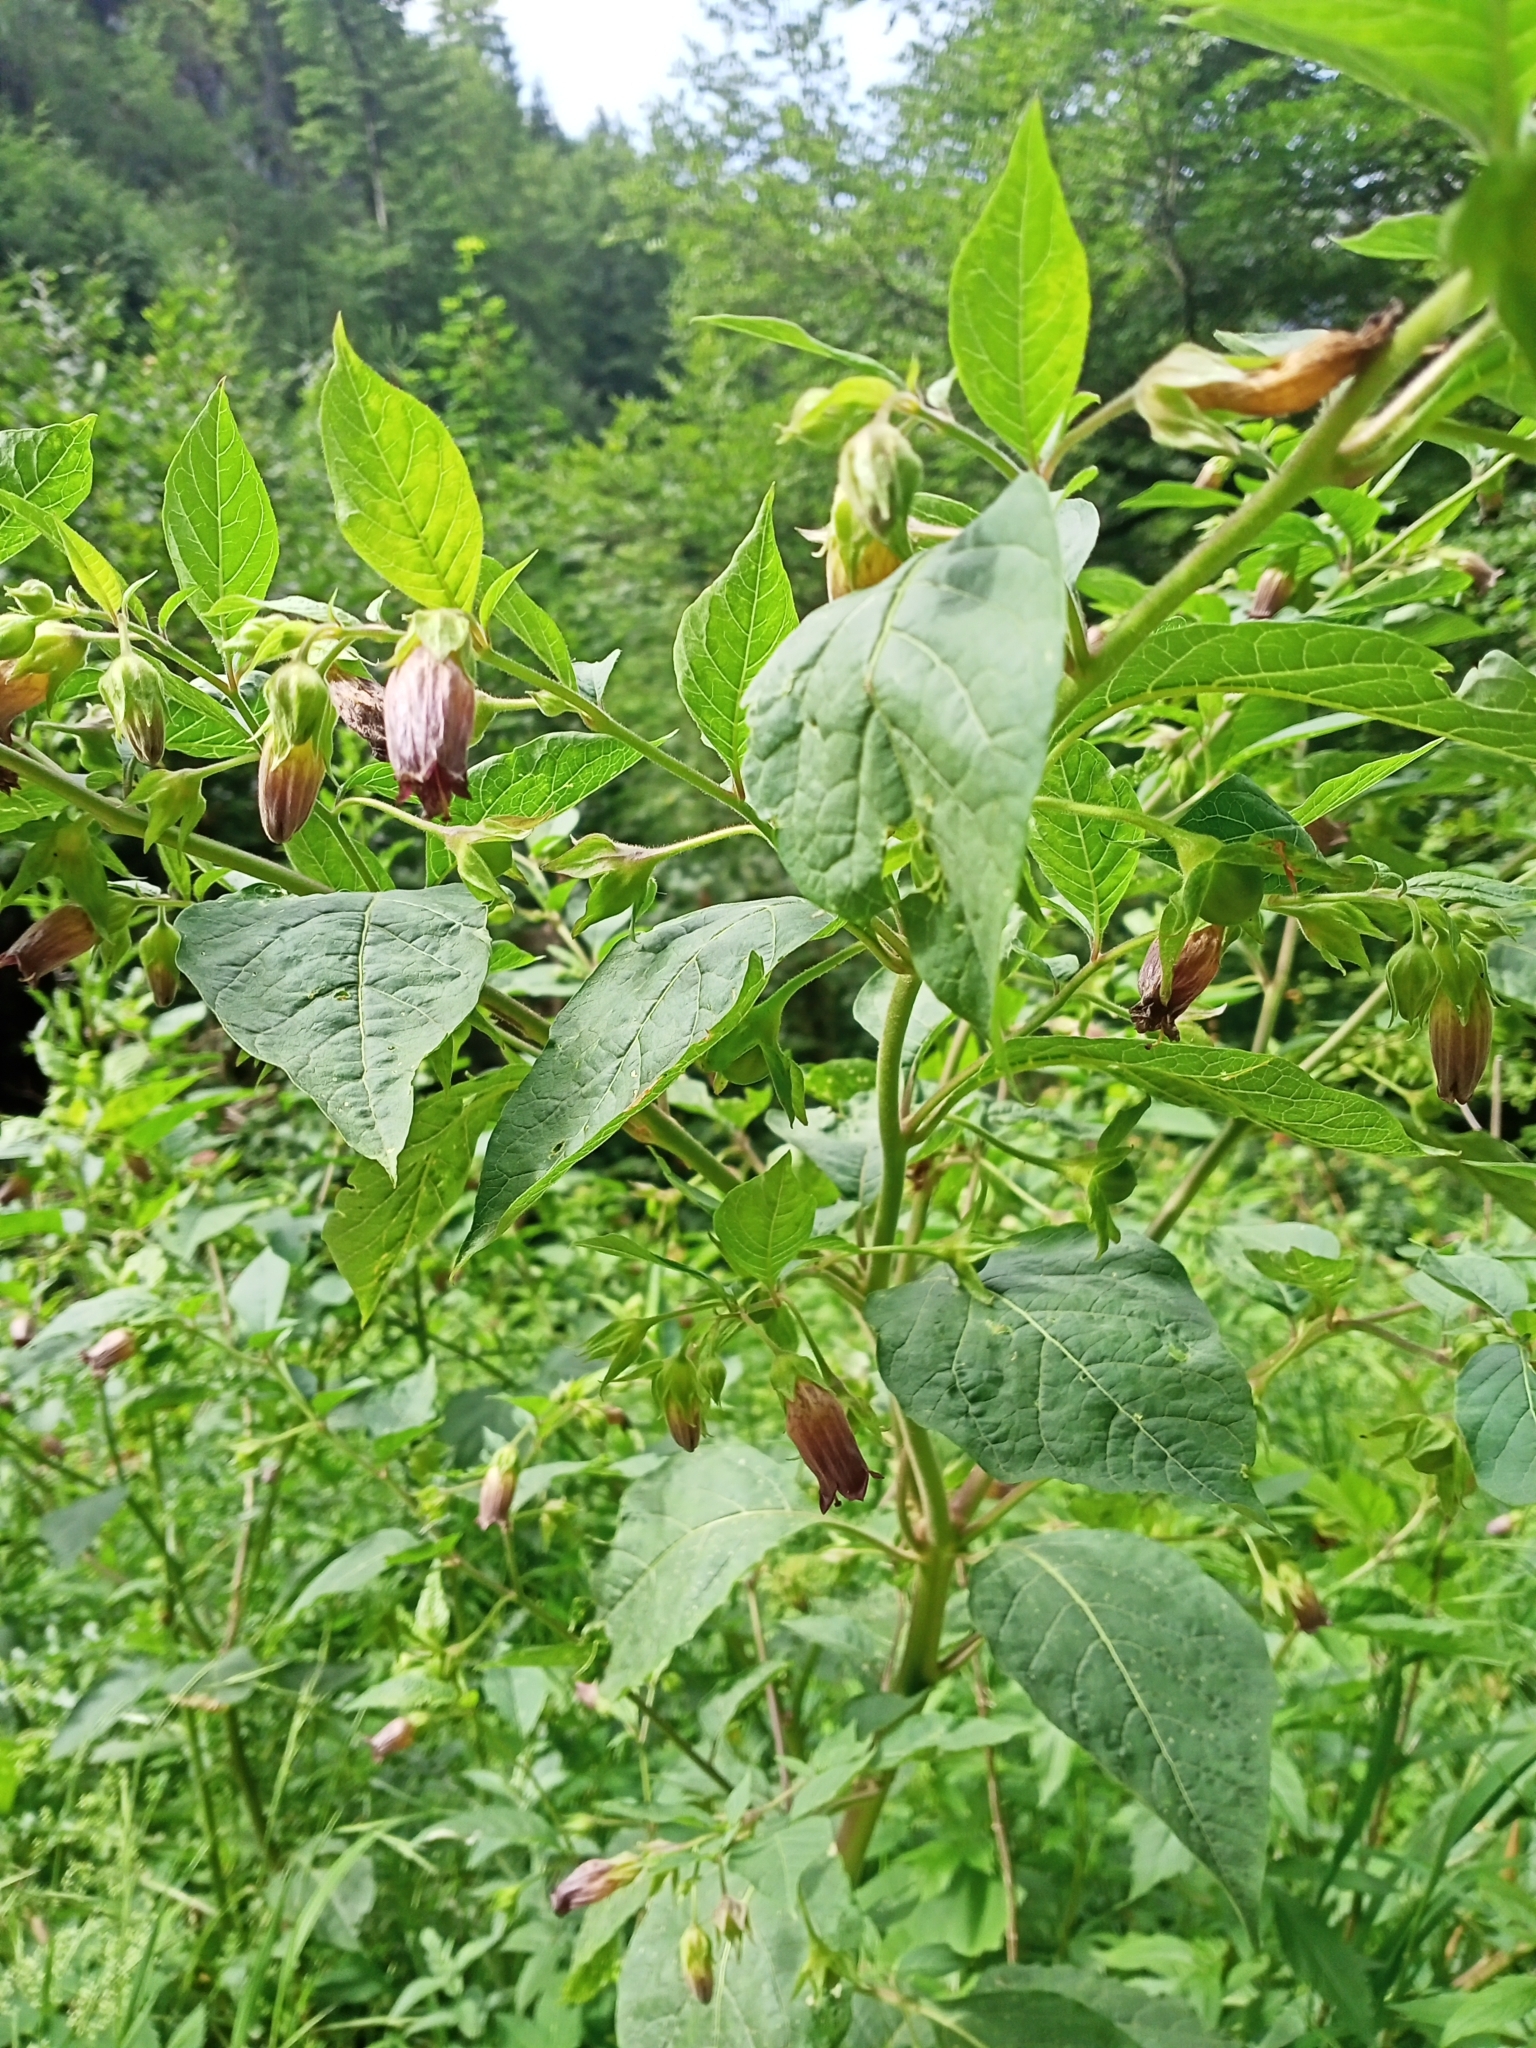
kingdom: Plantae
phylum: Tracheophyta
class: Magnoliopsida
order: Solanales
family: Solanaceae
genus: Atropa
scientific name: Atropa belladonna
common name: Deadly nightshade
